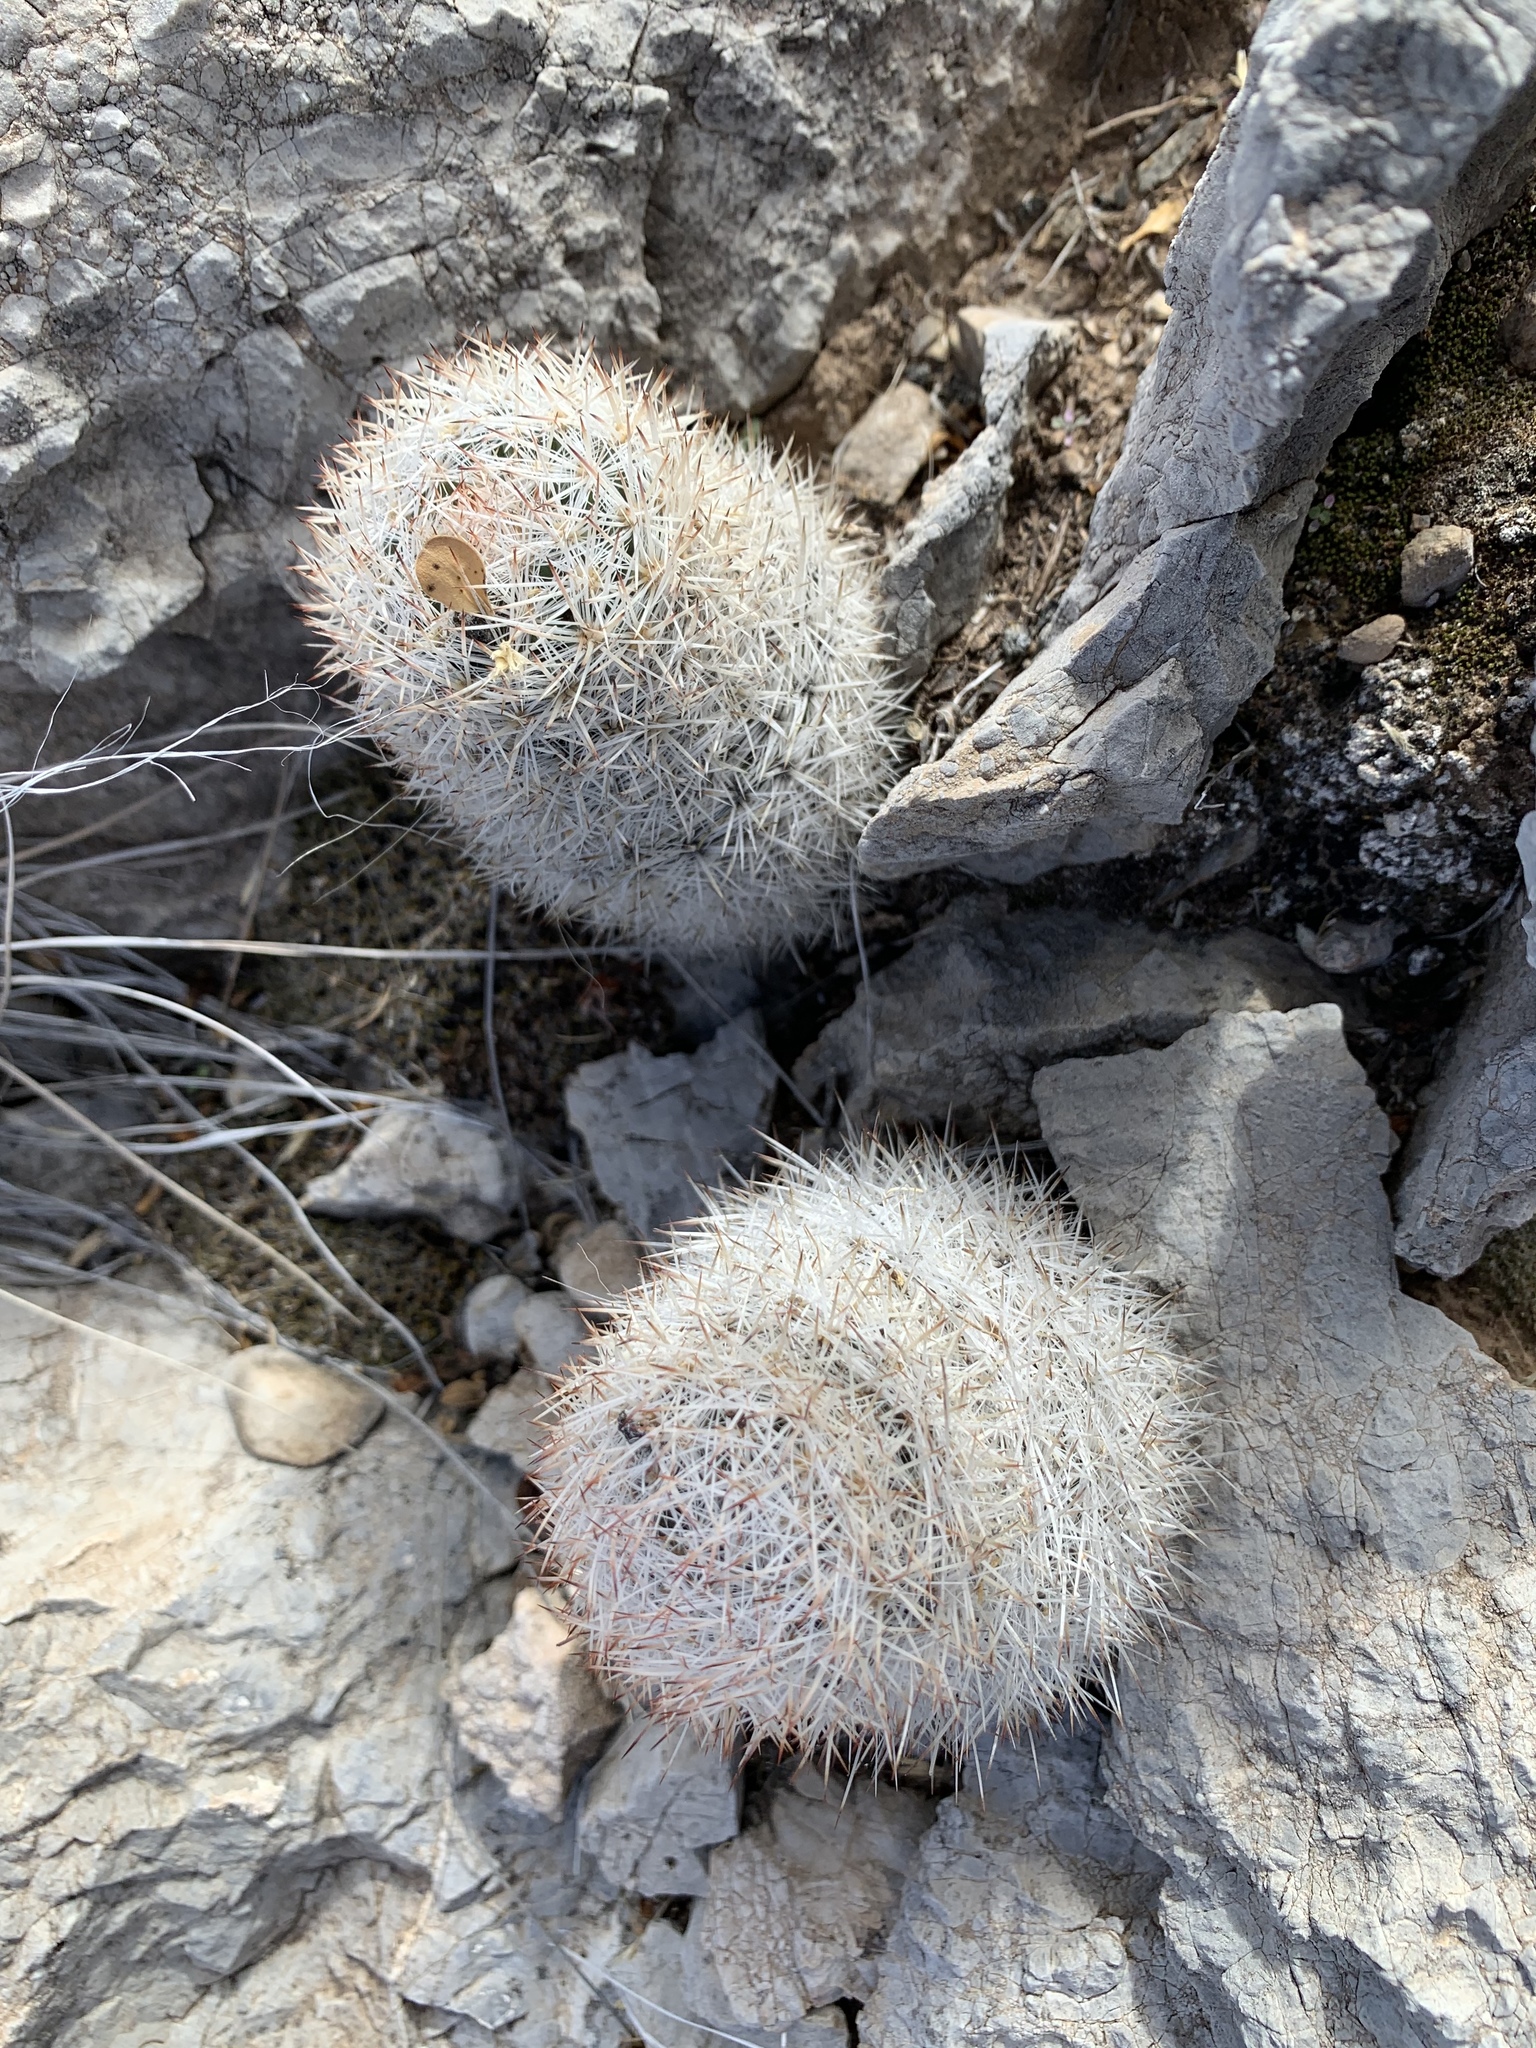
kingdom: Plantae
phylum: Tracheophyta
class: Magnoliopsida
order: Caryophyllales
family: Cactaceae
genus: Pelecyphora
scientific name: Pelecyphora sneedii
